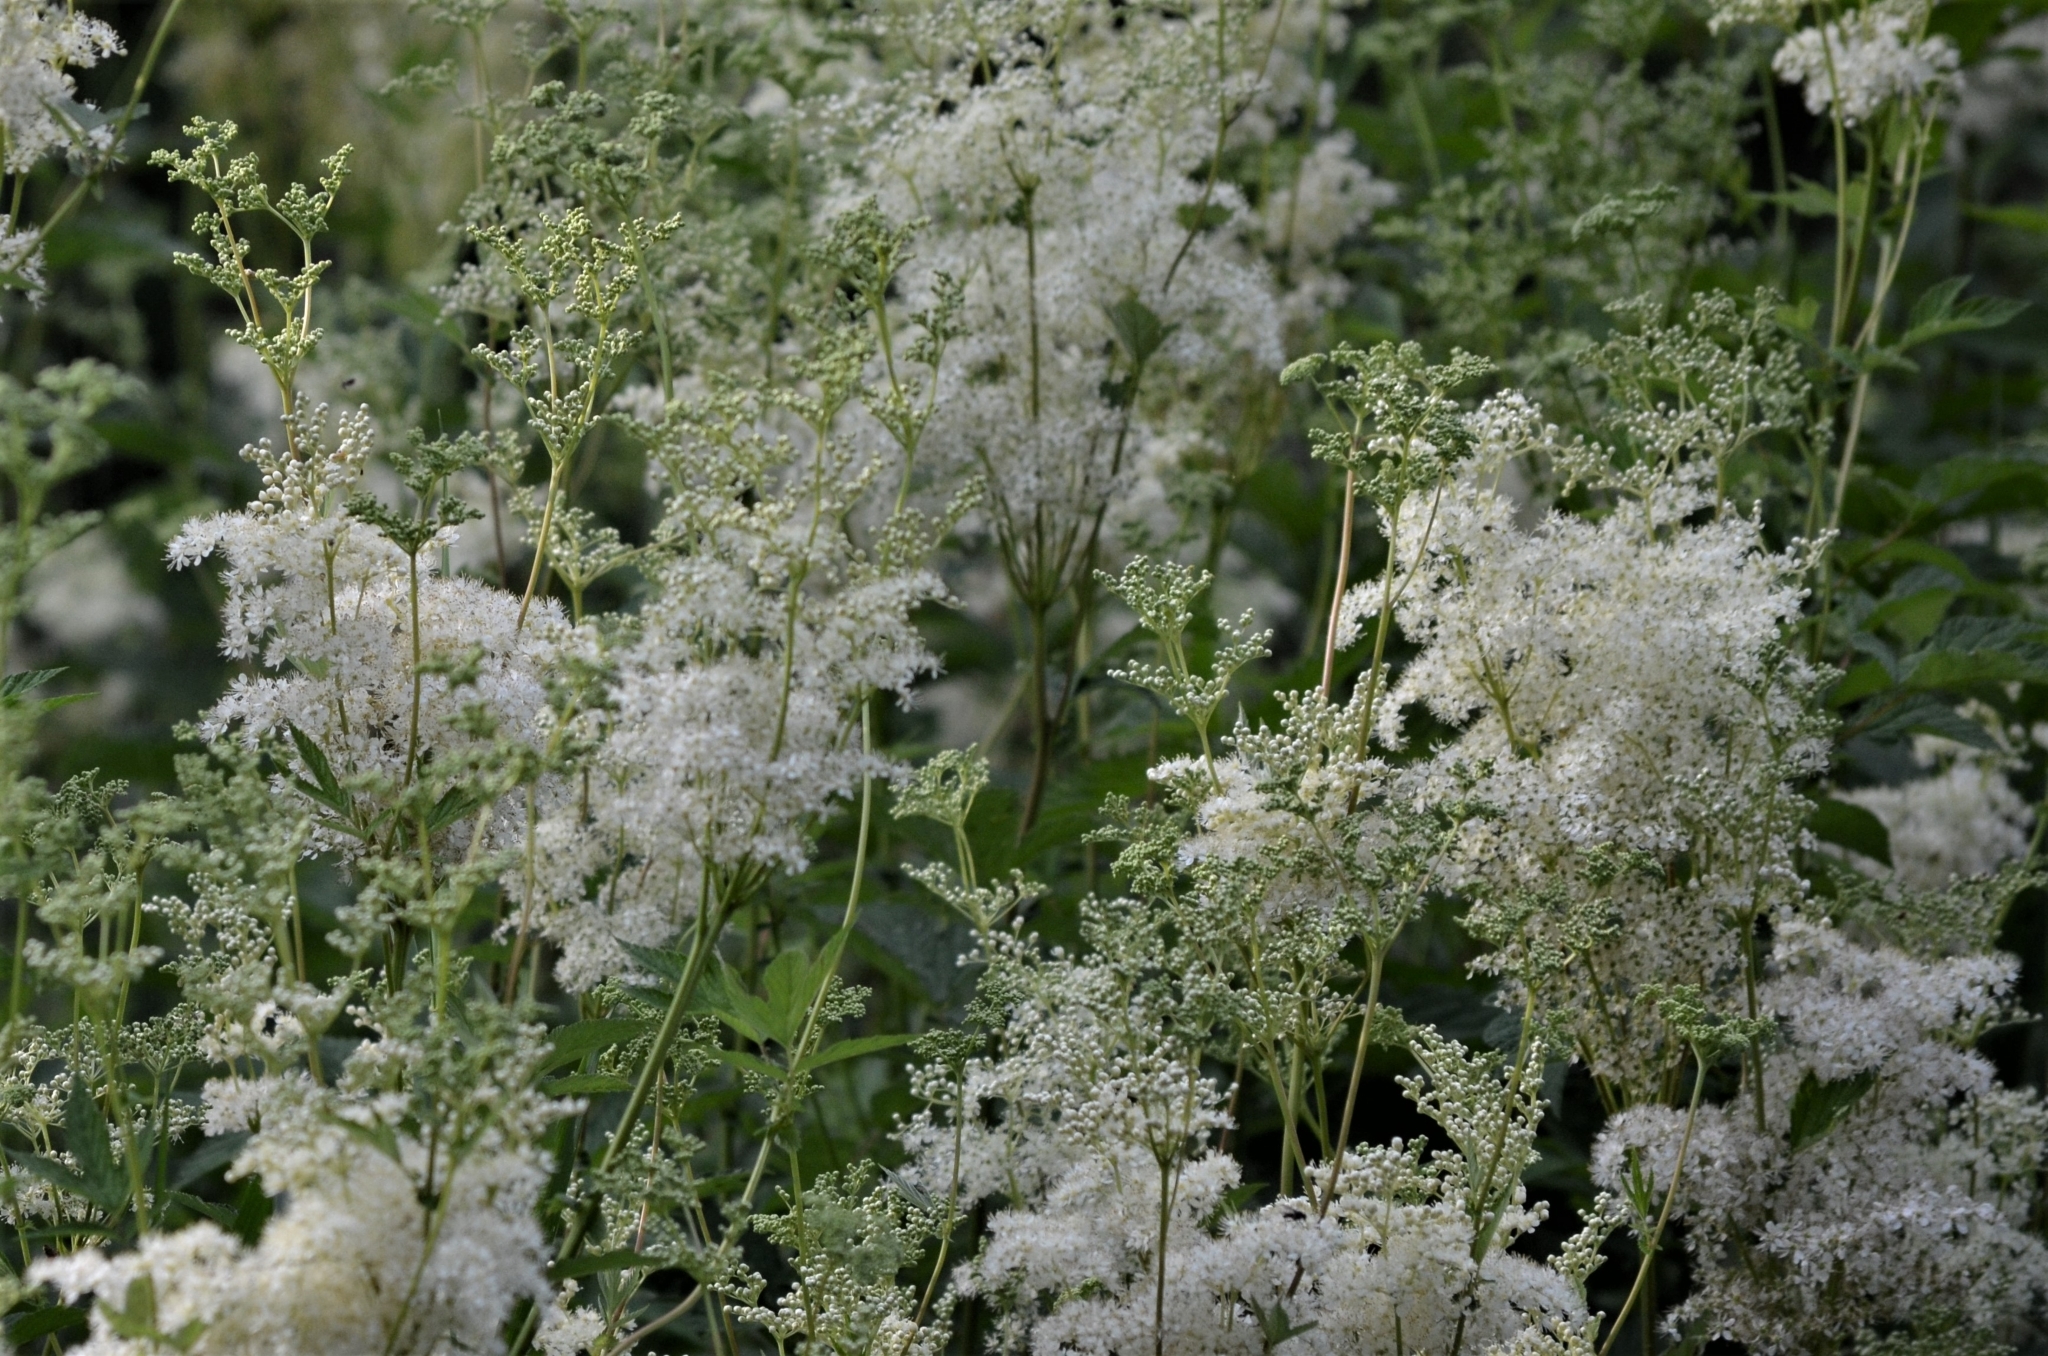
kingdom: Plantae
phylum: Tracheophyta
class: Magnoliopsida
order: Rosales
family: Rosaceae
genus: Filipendula
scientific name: Filipendula ulmaria
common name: Meadowsweet
